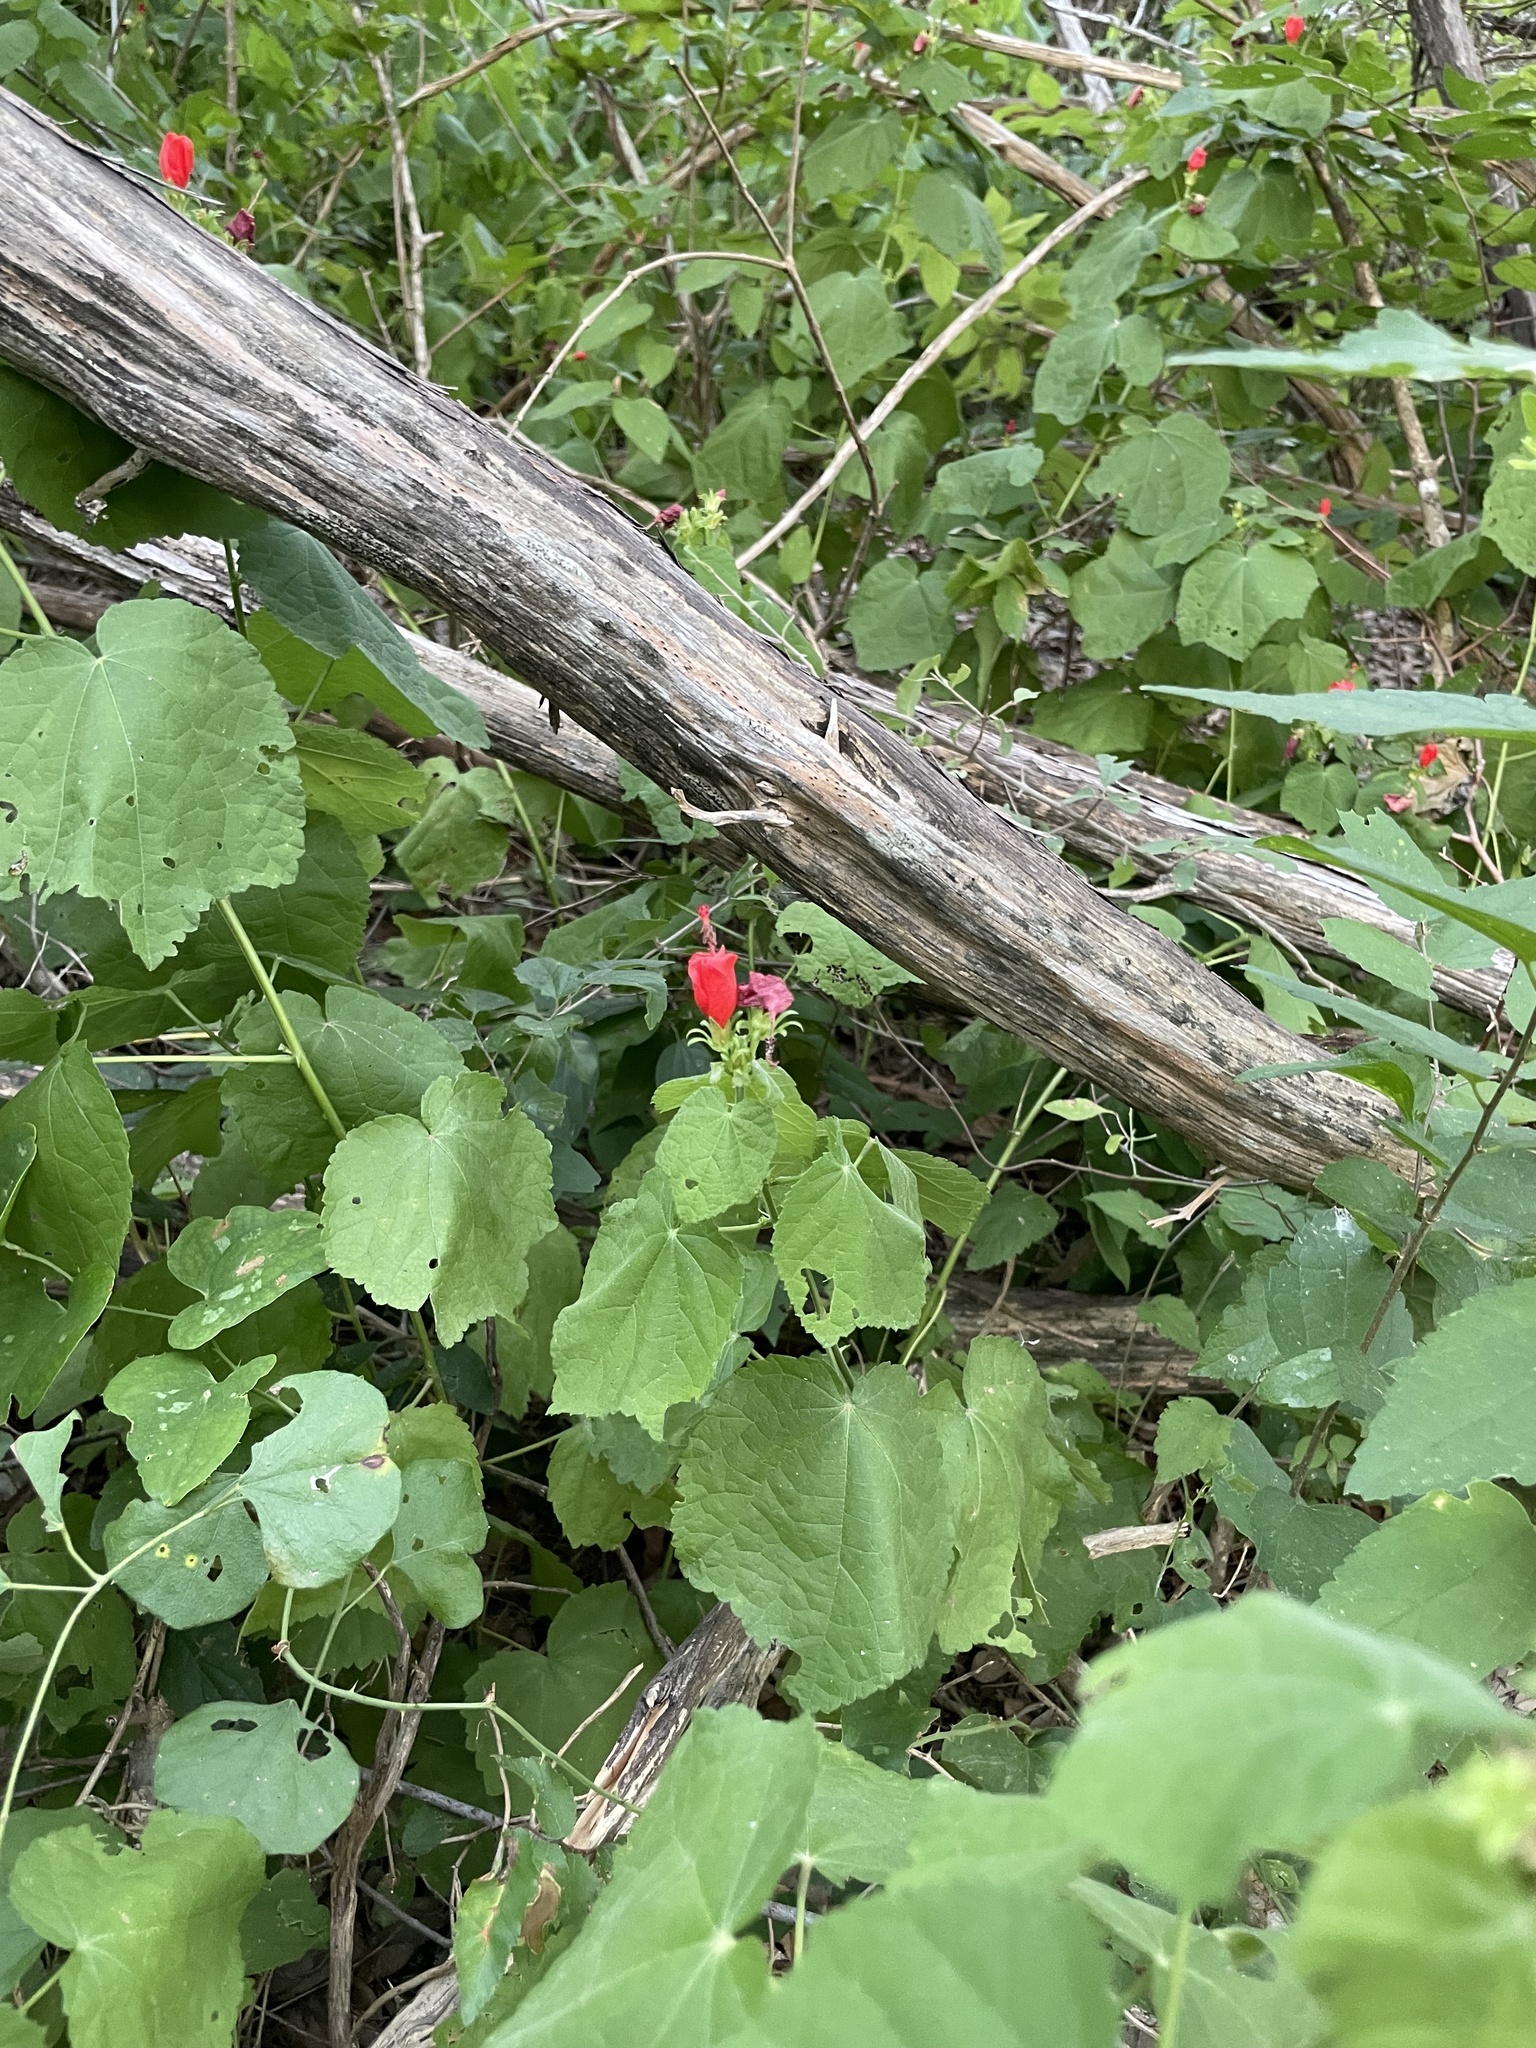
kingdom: Plantae
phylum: Tracheophyta
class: Magnoliopsida
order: Malvales
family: Malvaceae
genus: Malvaviscus
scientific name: Malvaviscus arboreus
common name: Wax mallow
